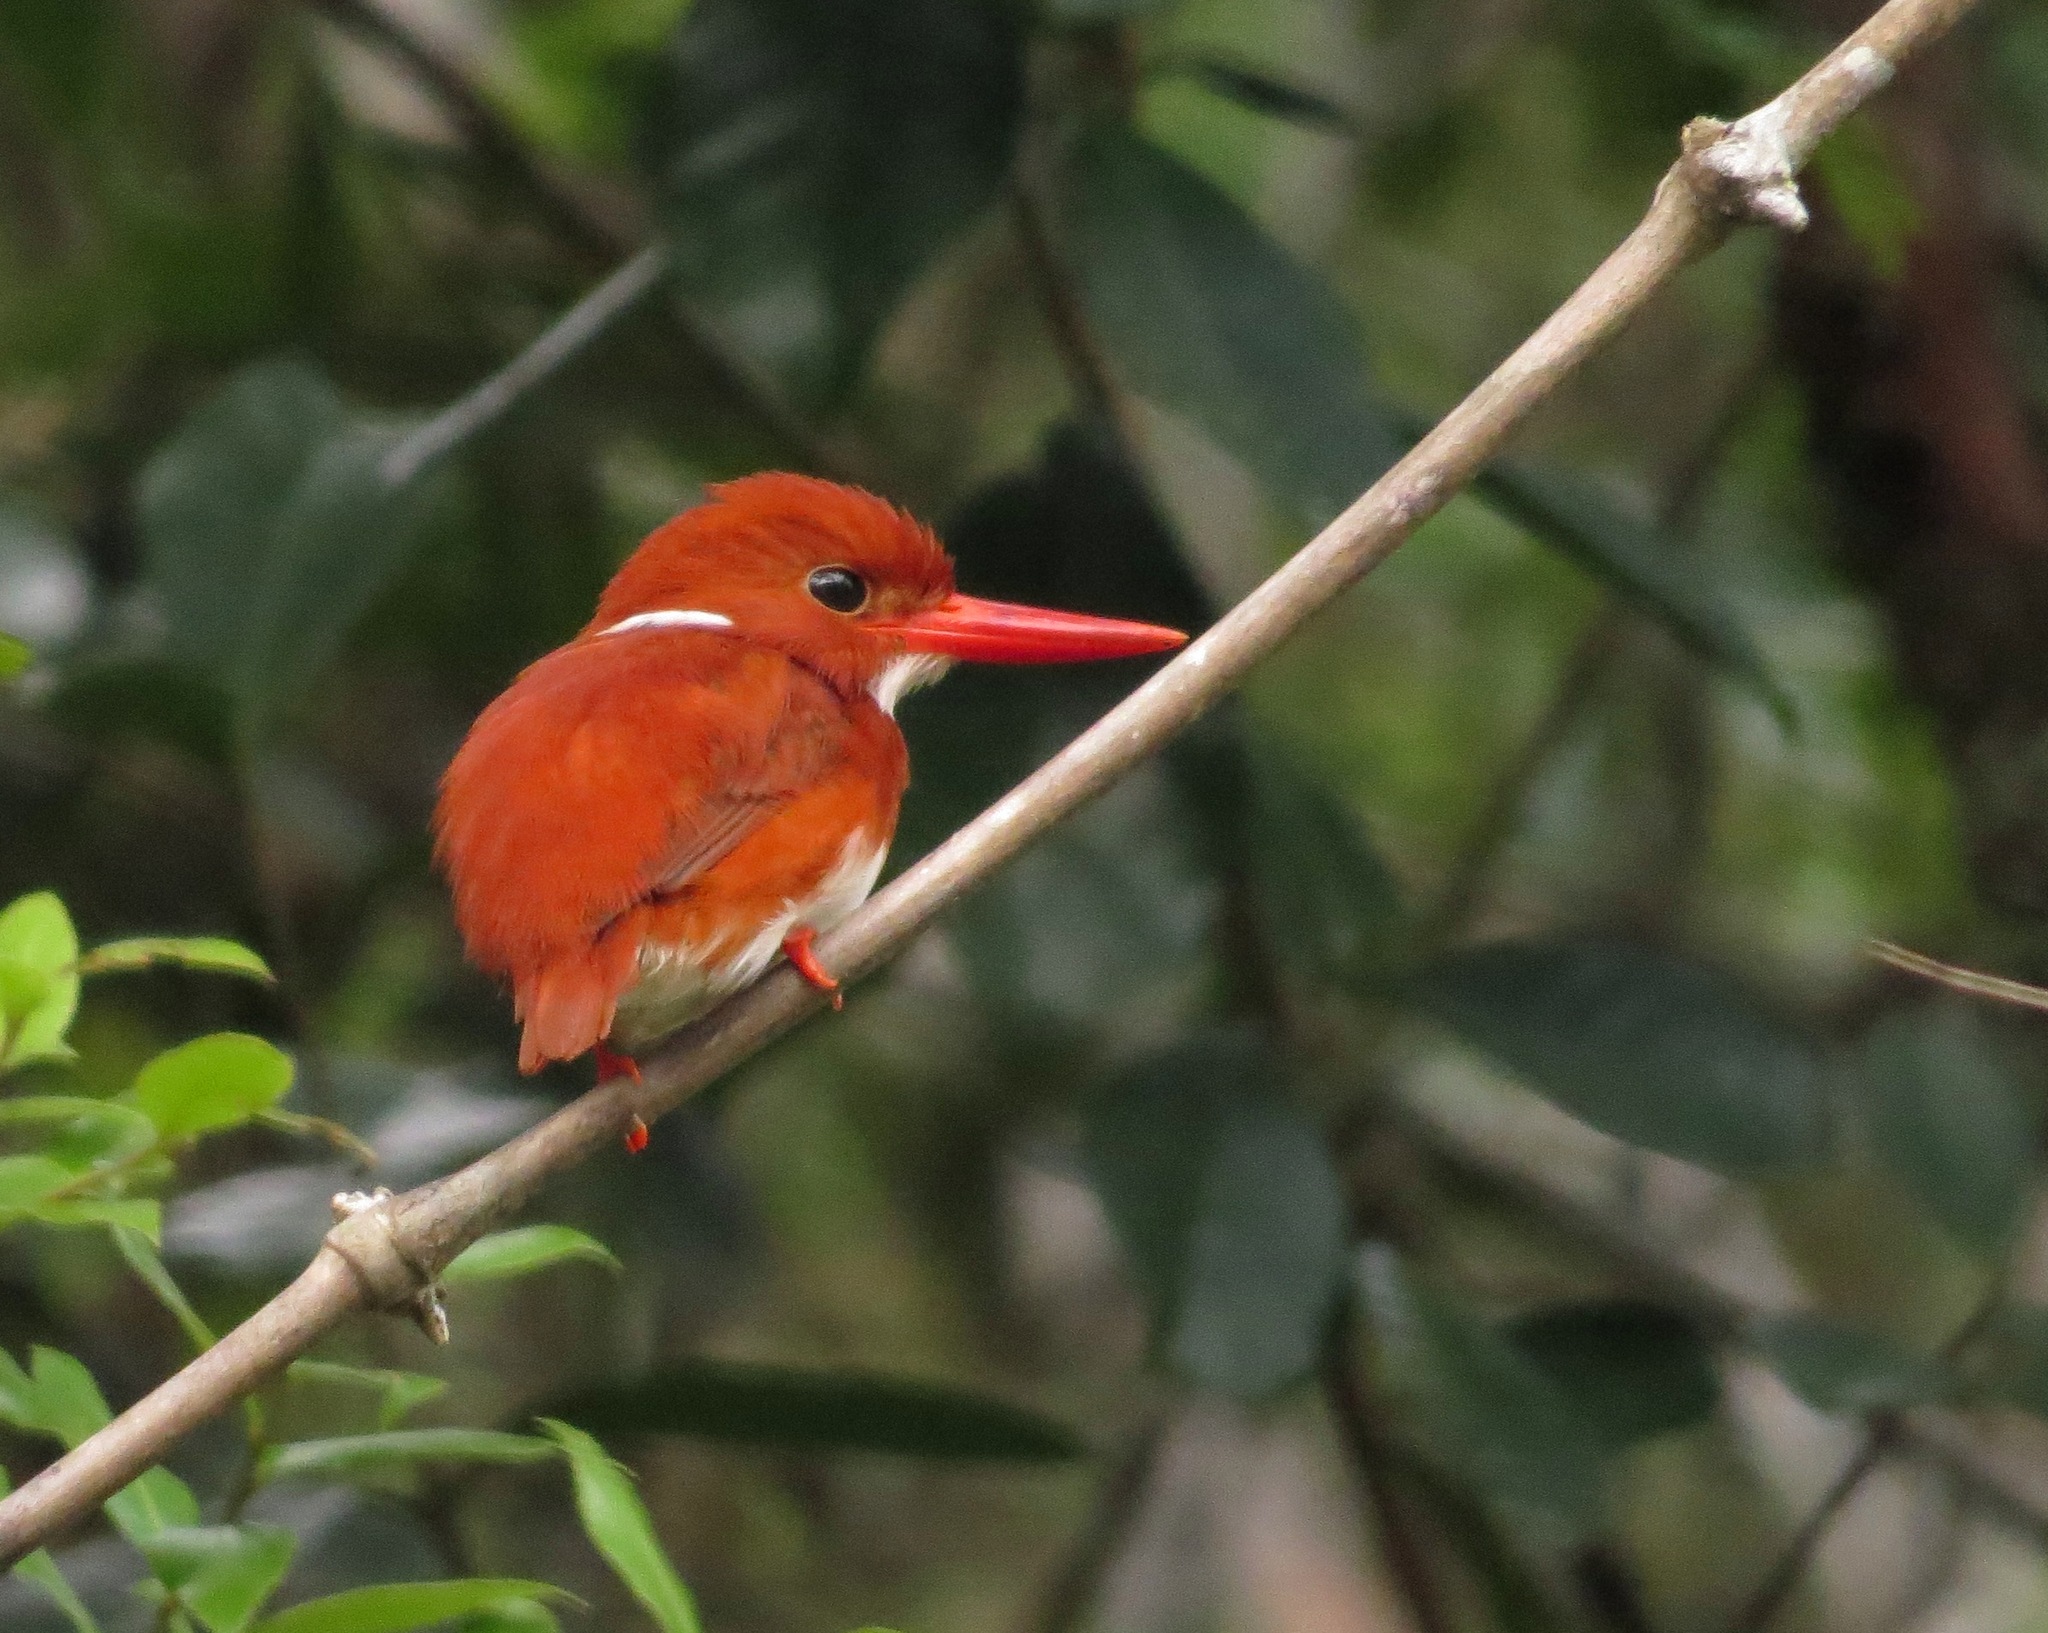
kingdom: Animalia
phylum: Chordata
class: Aves
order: Coraciiformes
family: Alcedinidae
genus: Corythornis
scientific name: Corythornis madagascariensis
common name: Madagascar pygmy-kingfisher
